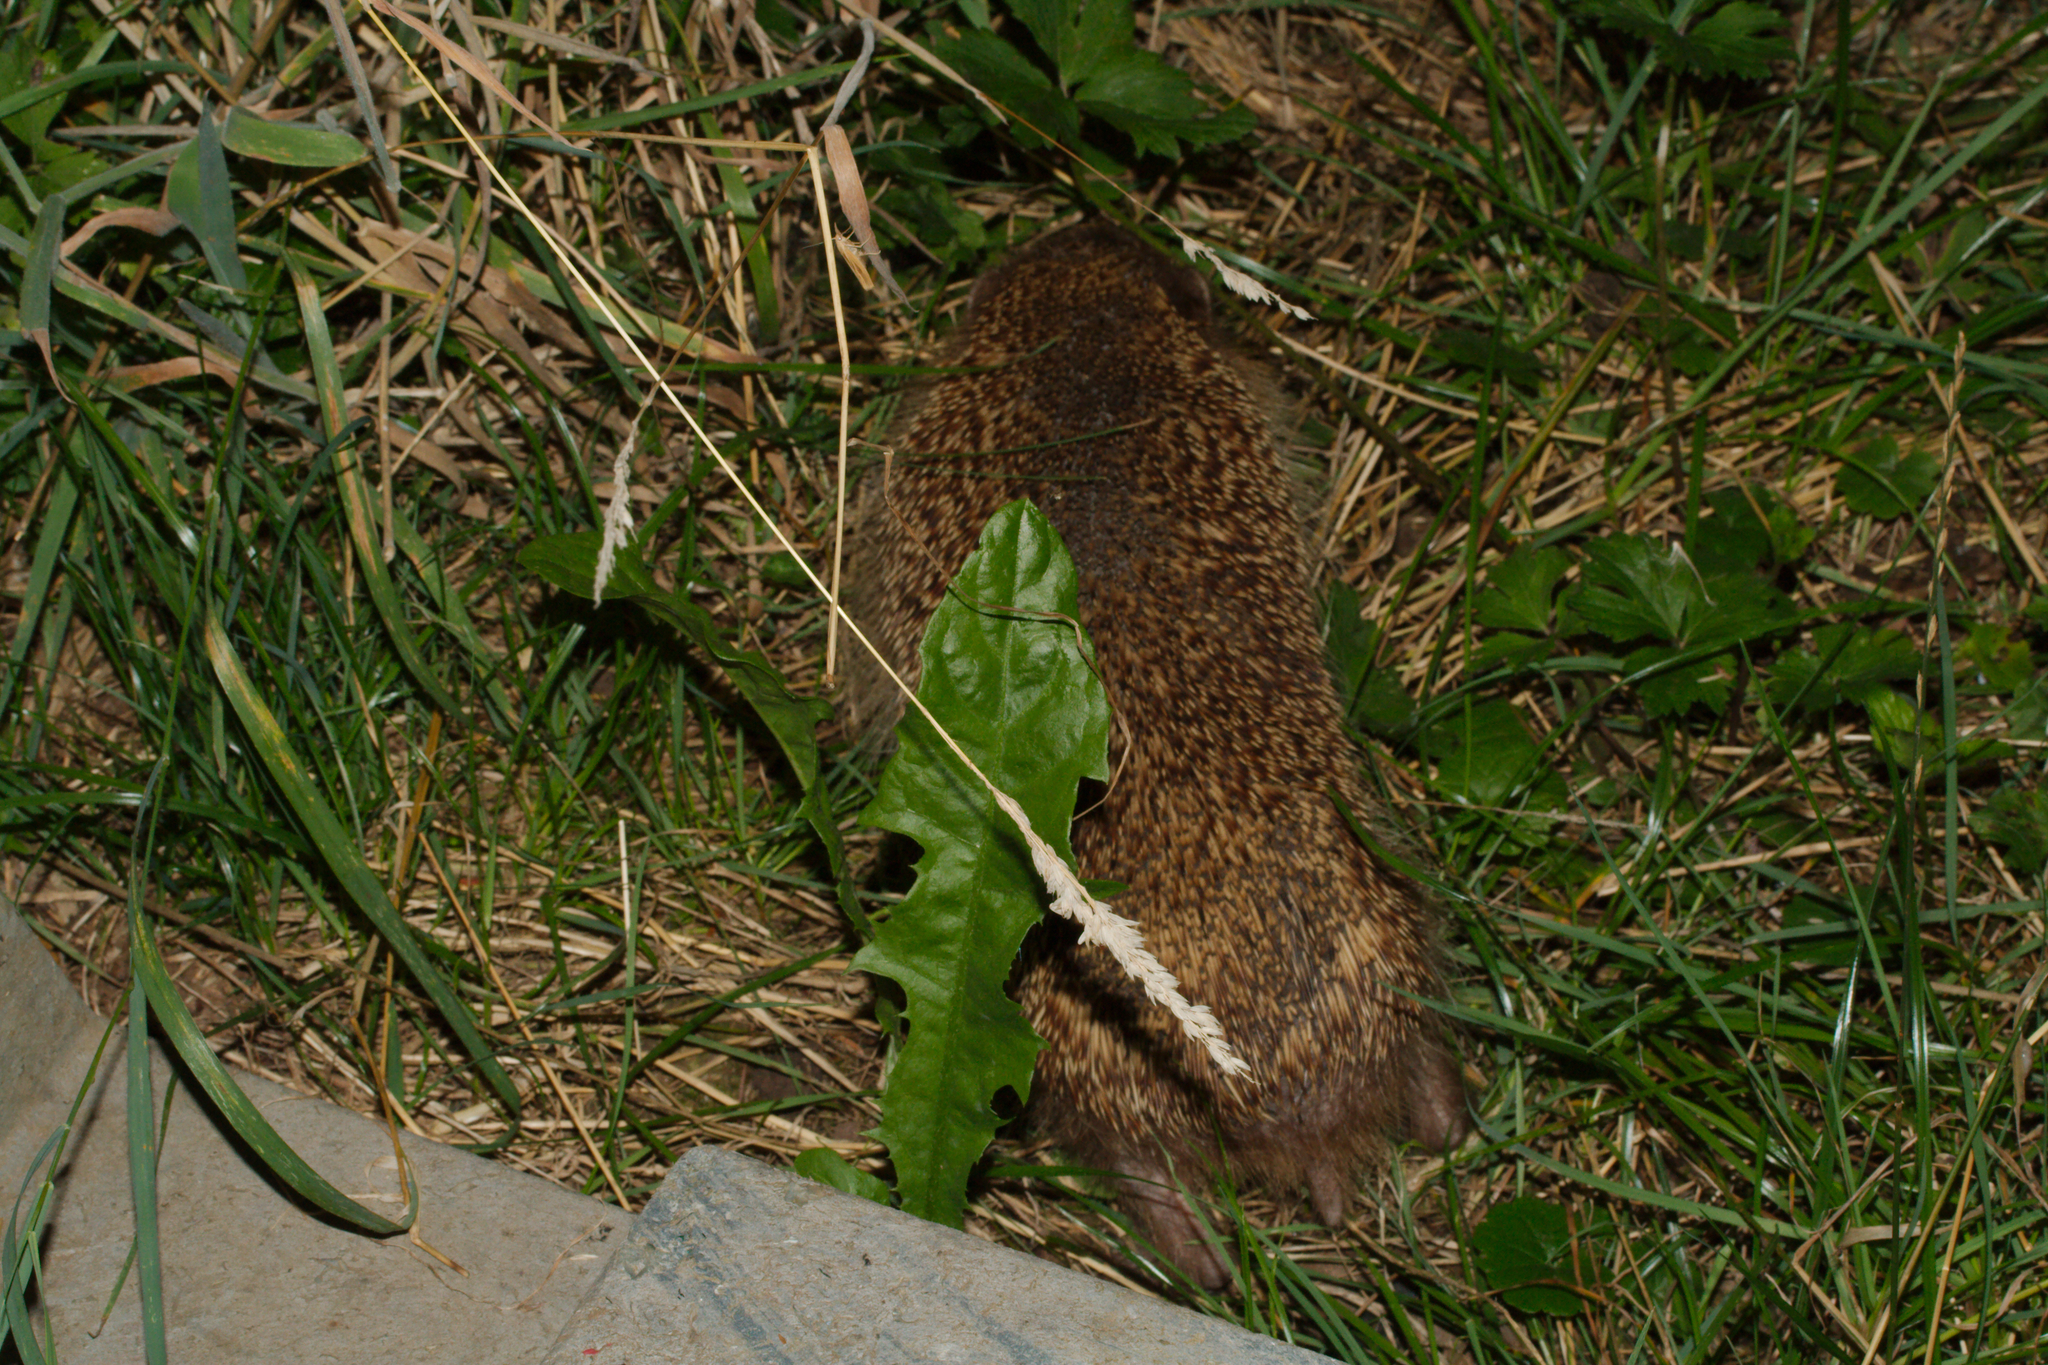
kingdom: Animalia
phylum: Chordata
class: Mammalia
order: Erinaceomorpha
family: Erinaceidae
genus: Erinaceus
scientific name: Erinaceus europaeus
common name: West european hedgehog
